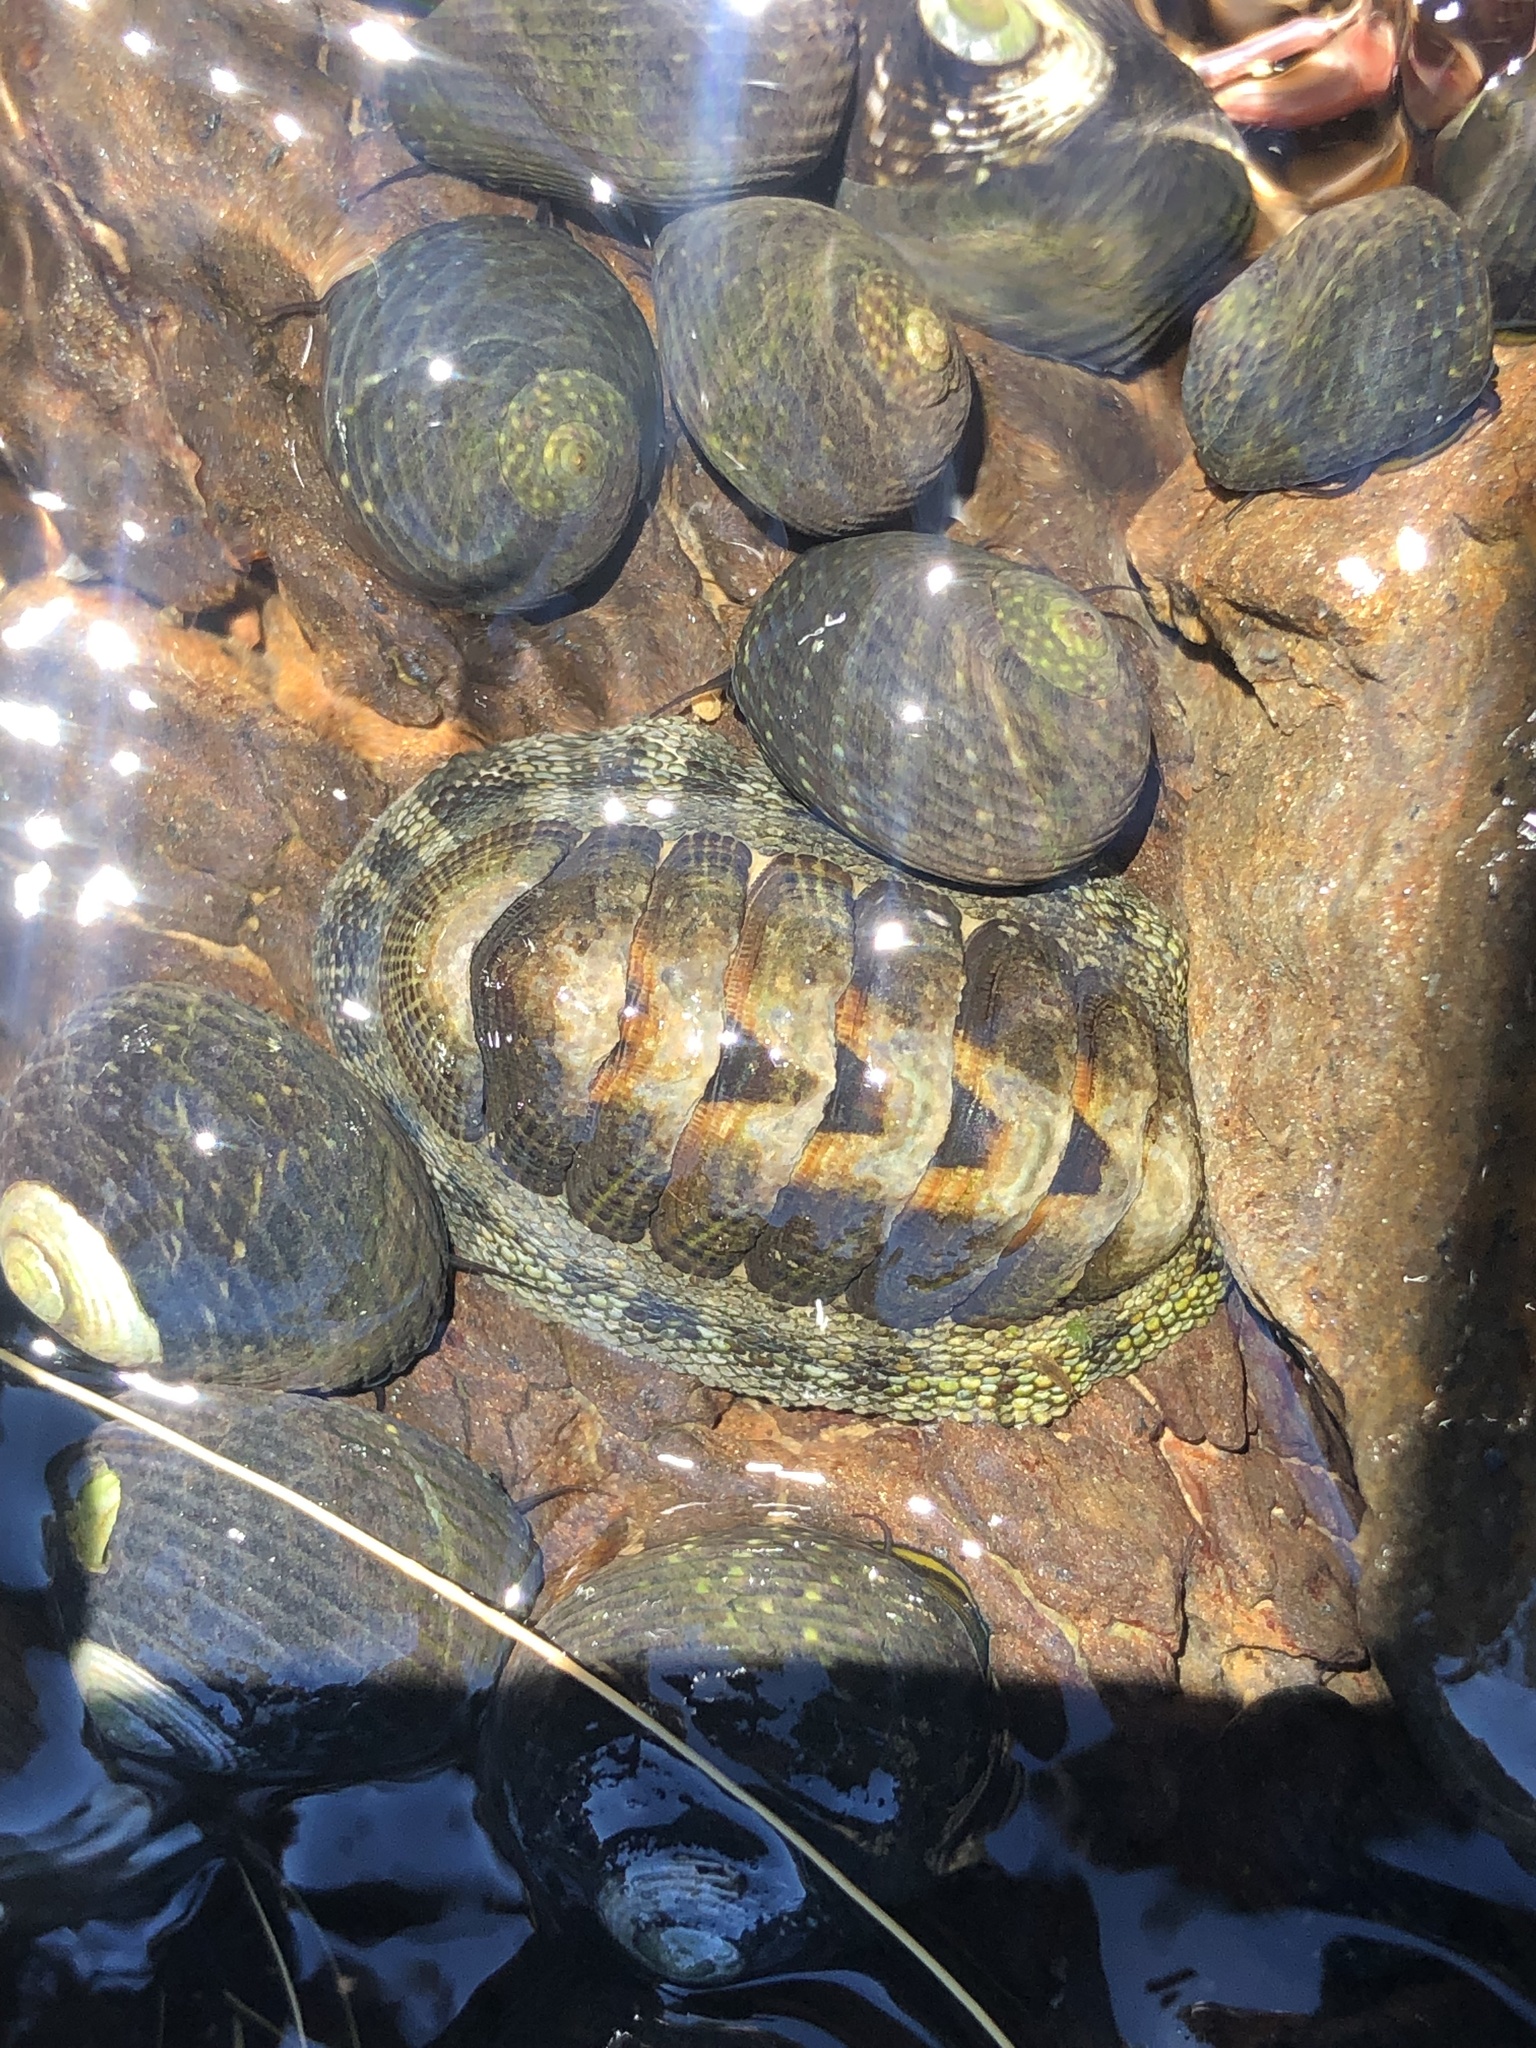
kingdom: Animalia
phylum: Mollusca
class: Polyplacophora
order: Chitonida
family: Chitonidae
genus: Sypharochiton
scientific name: Sypharochiton pelliserpentis
